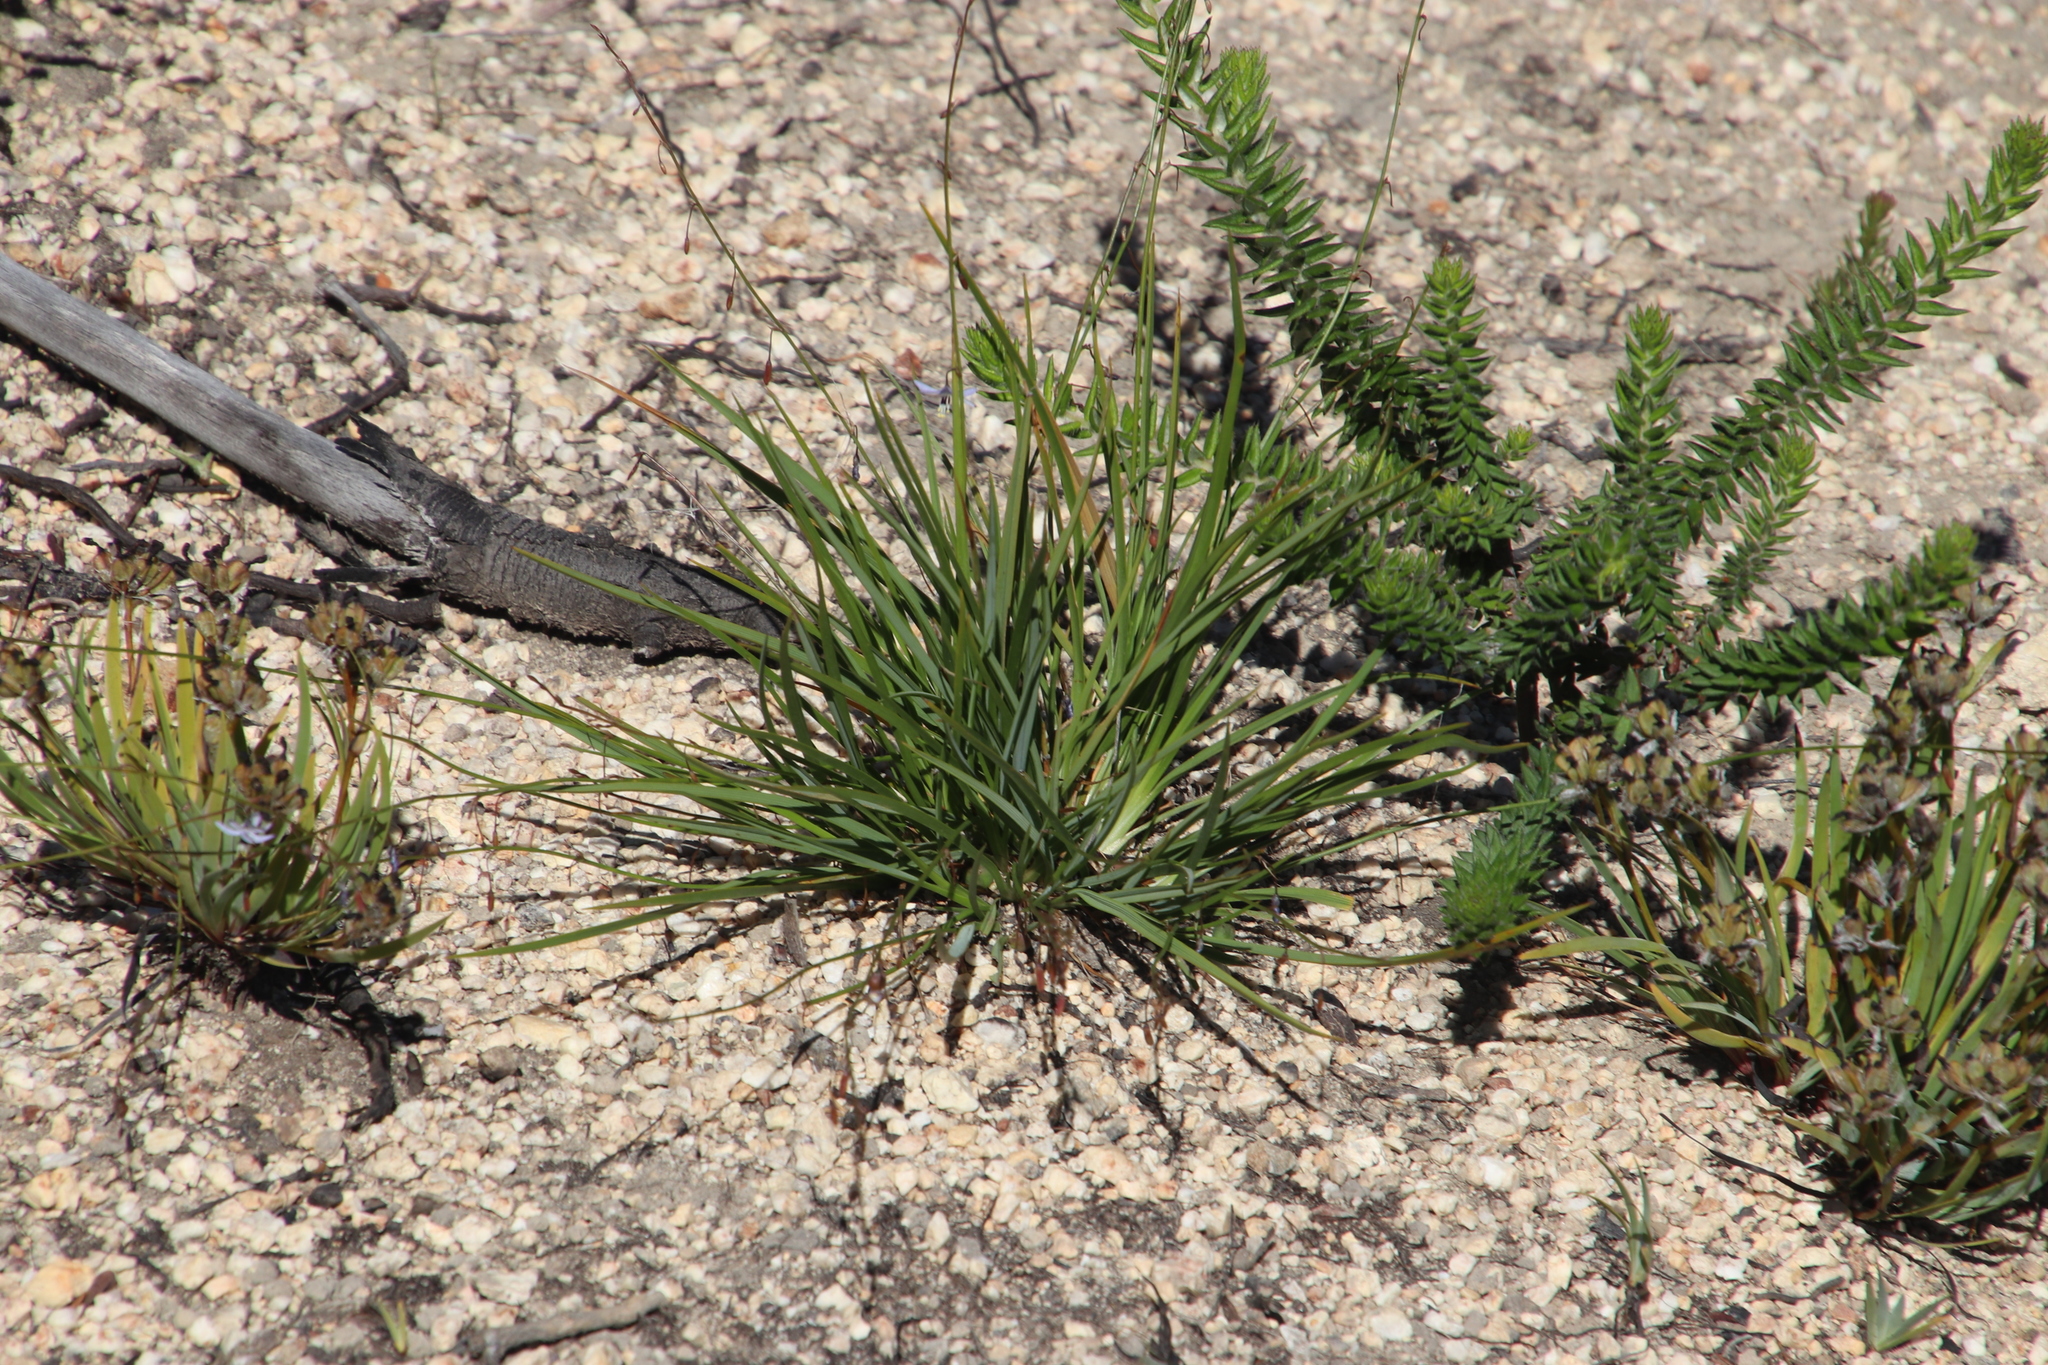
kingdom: Plantae
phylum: Tracheophyta
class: Liliopsida
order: Asparagales
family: Iridaceae
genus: Aristea
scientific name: Aristea africana
